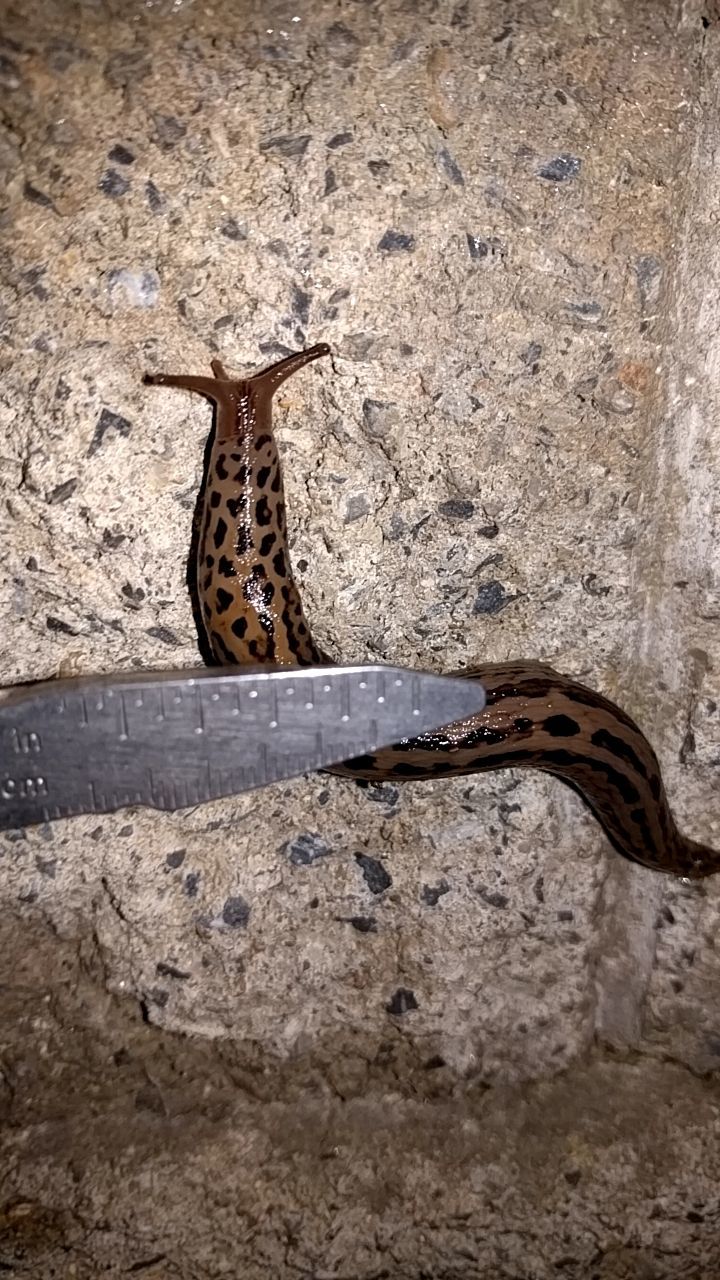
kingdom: Animalia
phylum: Mollusca
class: Gastropoda
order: Stylommatophora
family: Limacidae
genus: Limax
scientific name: Limax maximus
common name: Great grey slug
